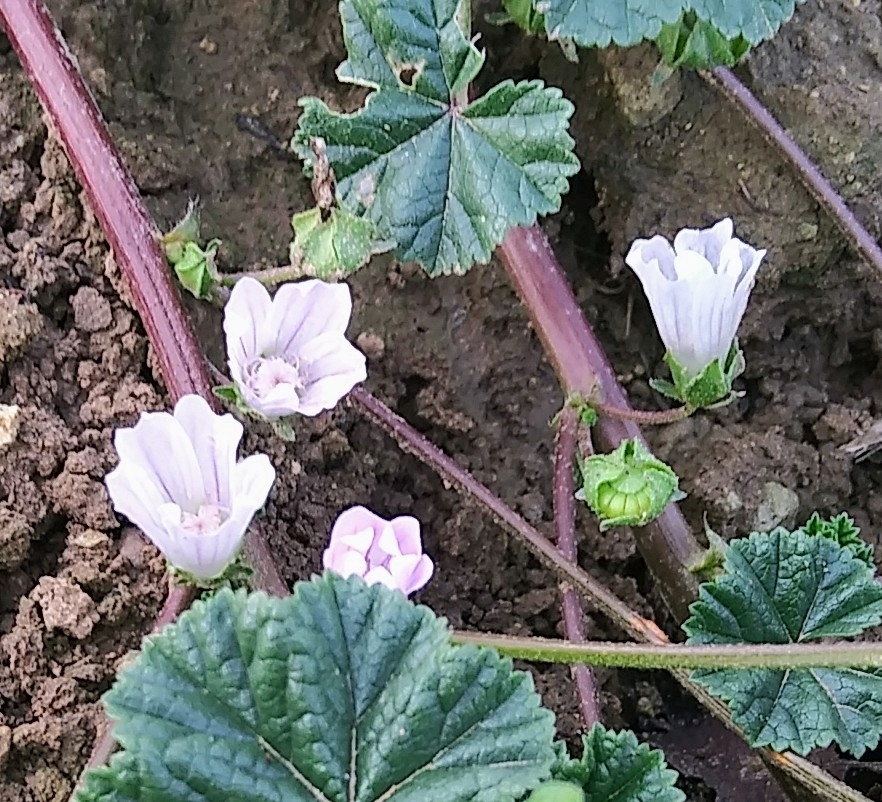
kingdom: Plantae
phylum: Tracheophyta
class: Magnoliopsida
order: Malvales
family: Malvaceae
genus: Malva
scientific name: Malva neglecta
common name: Common mallow
